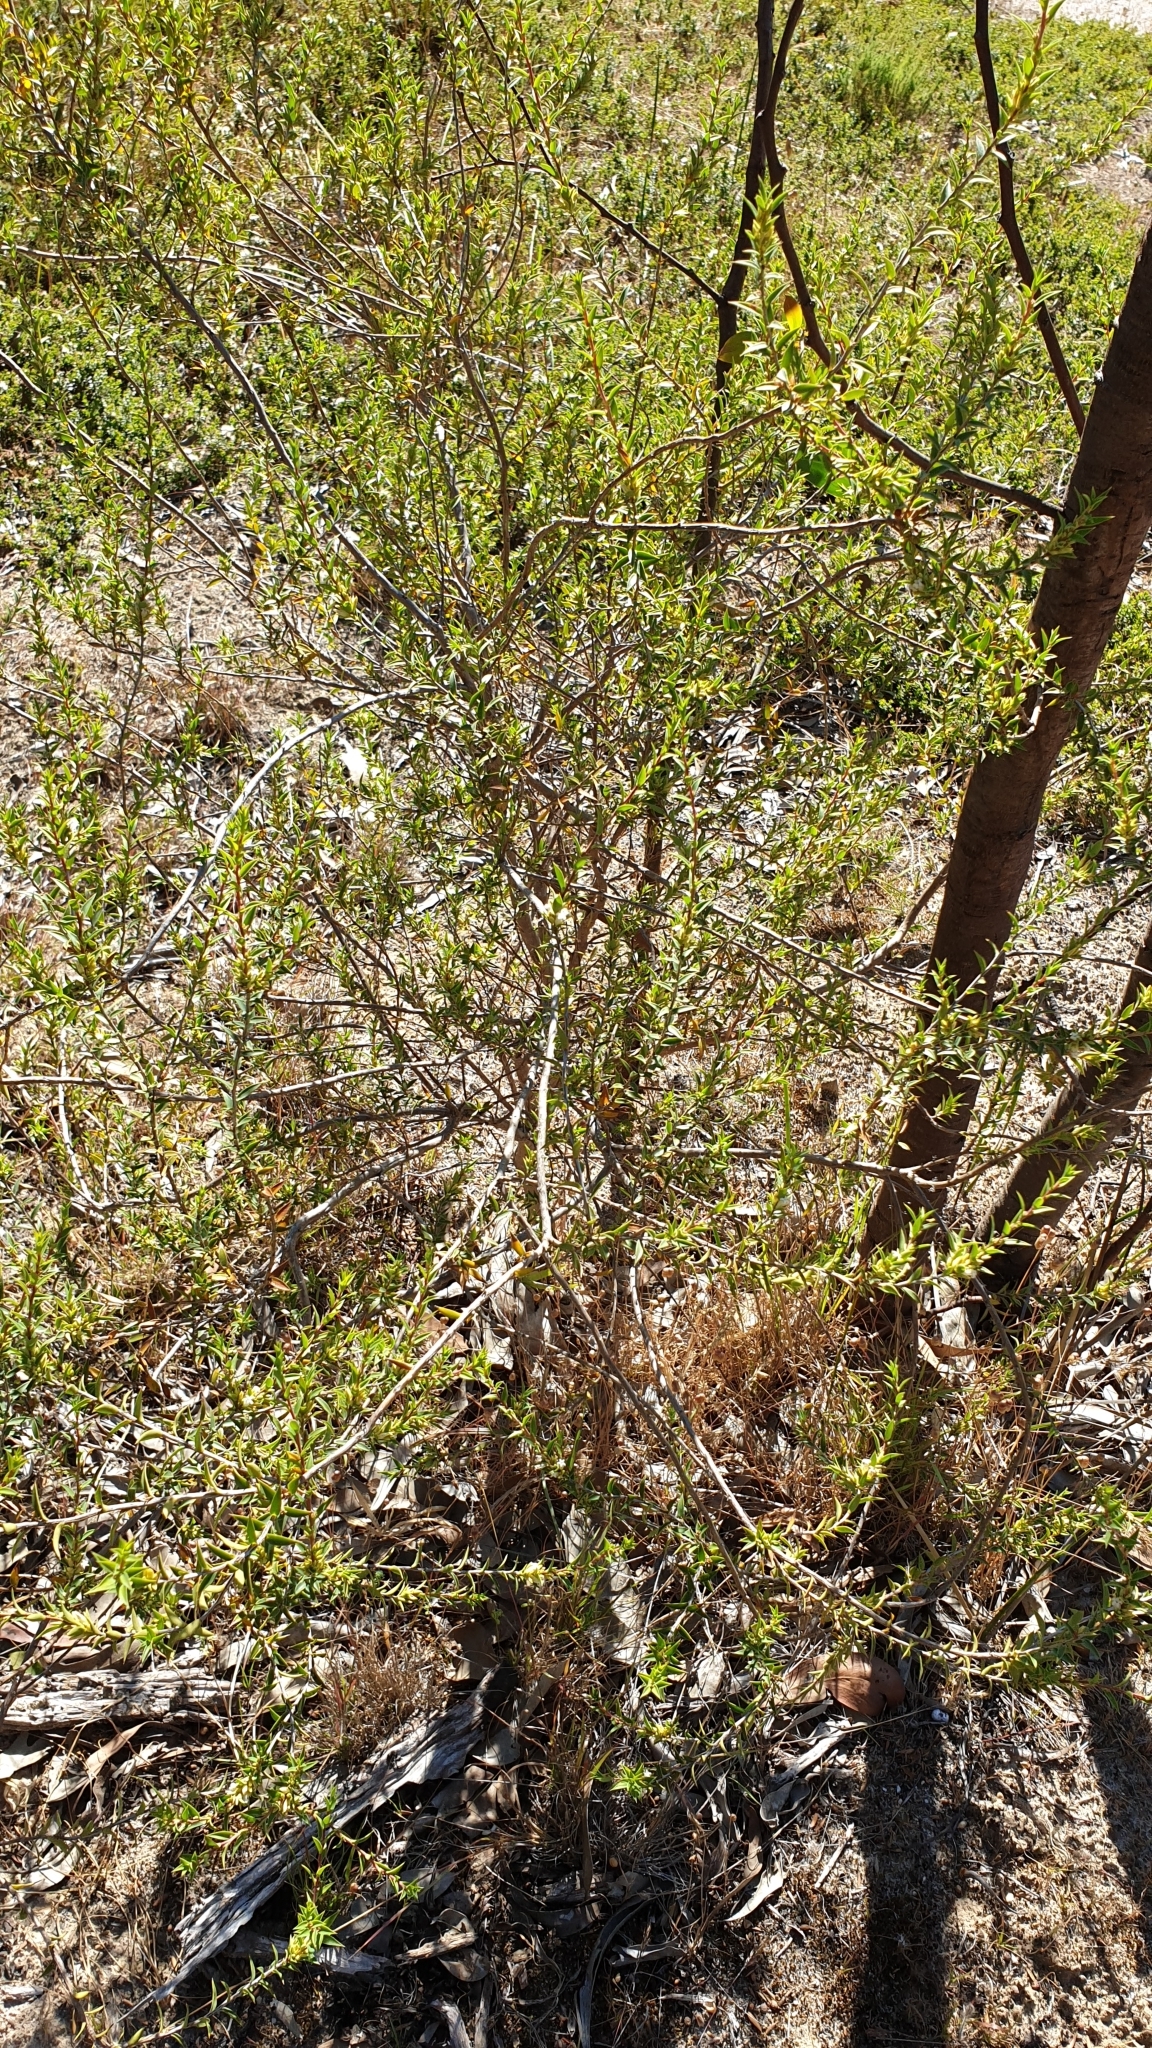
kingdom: Plantae
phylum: Tracheophyta
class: Magnoliopsida
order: Ericales
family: Ericaceae
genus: Styphelia
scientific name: Styphelia rufa
